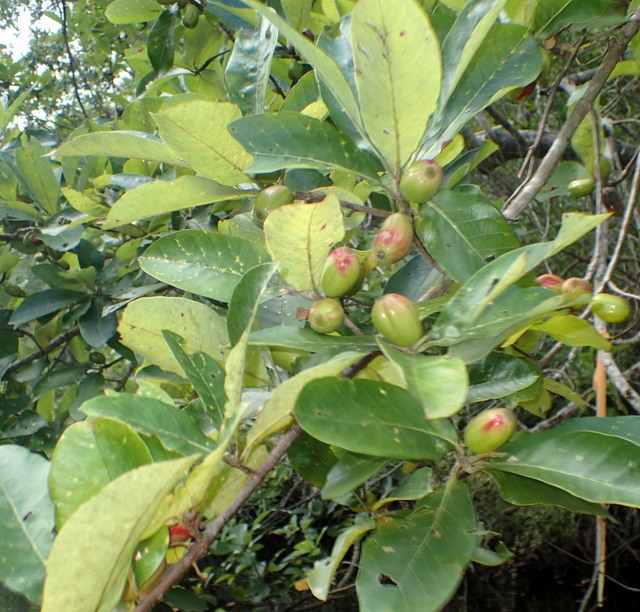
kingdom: Plantae
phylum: Tracheophyta
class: Magnoliopsida
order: Cornales
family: Nyssaceae
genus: Nyssa
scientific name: Nyssa ogeche
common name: Ogeechee tupelo
